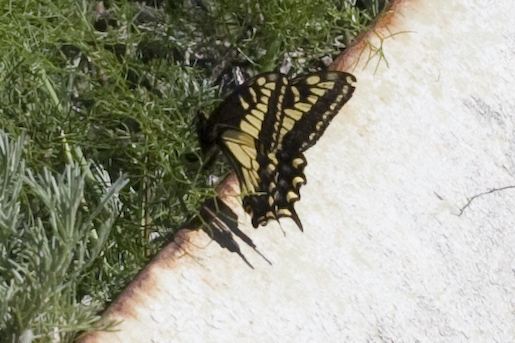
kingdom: Animalia
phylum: Arthropoda
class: Insecta
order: Lepidoptera
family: Papilionidae
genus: Papilio
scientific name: Papilio zelicaon
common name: Anise swallowtail
